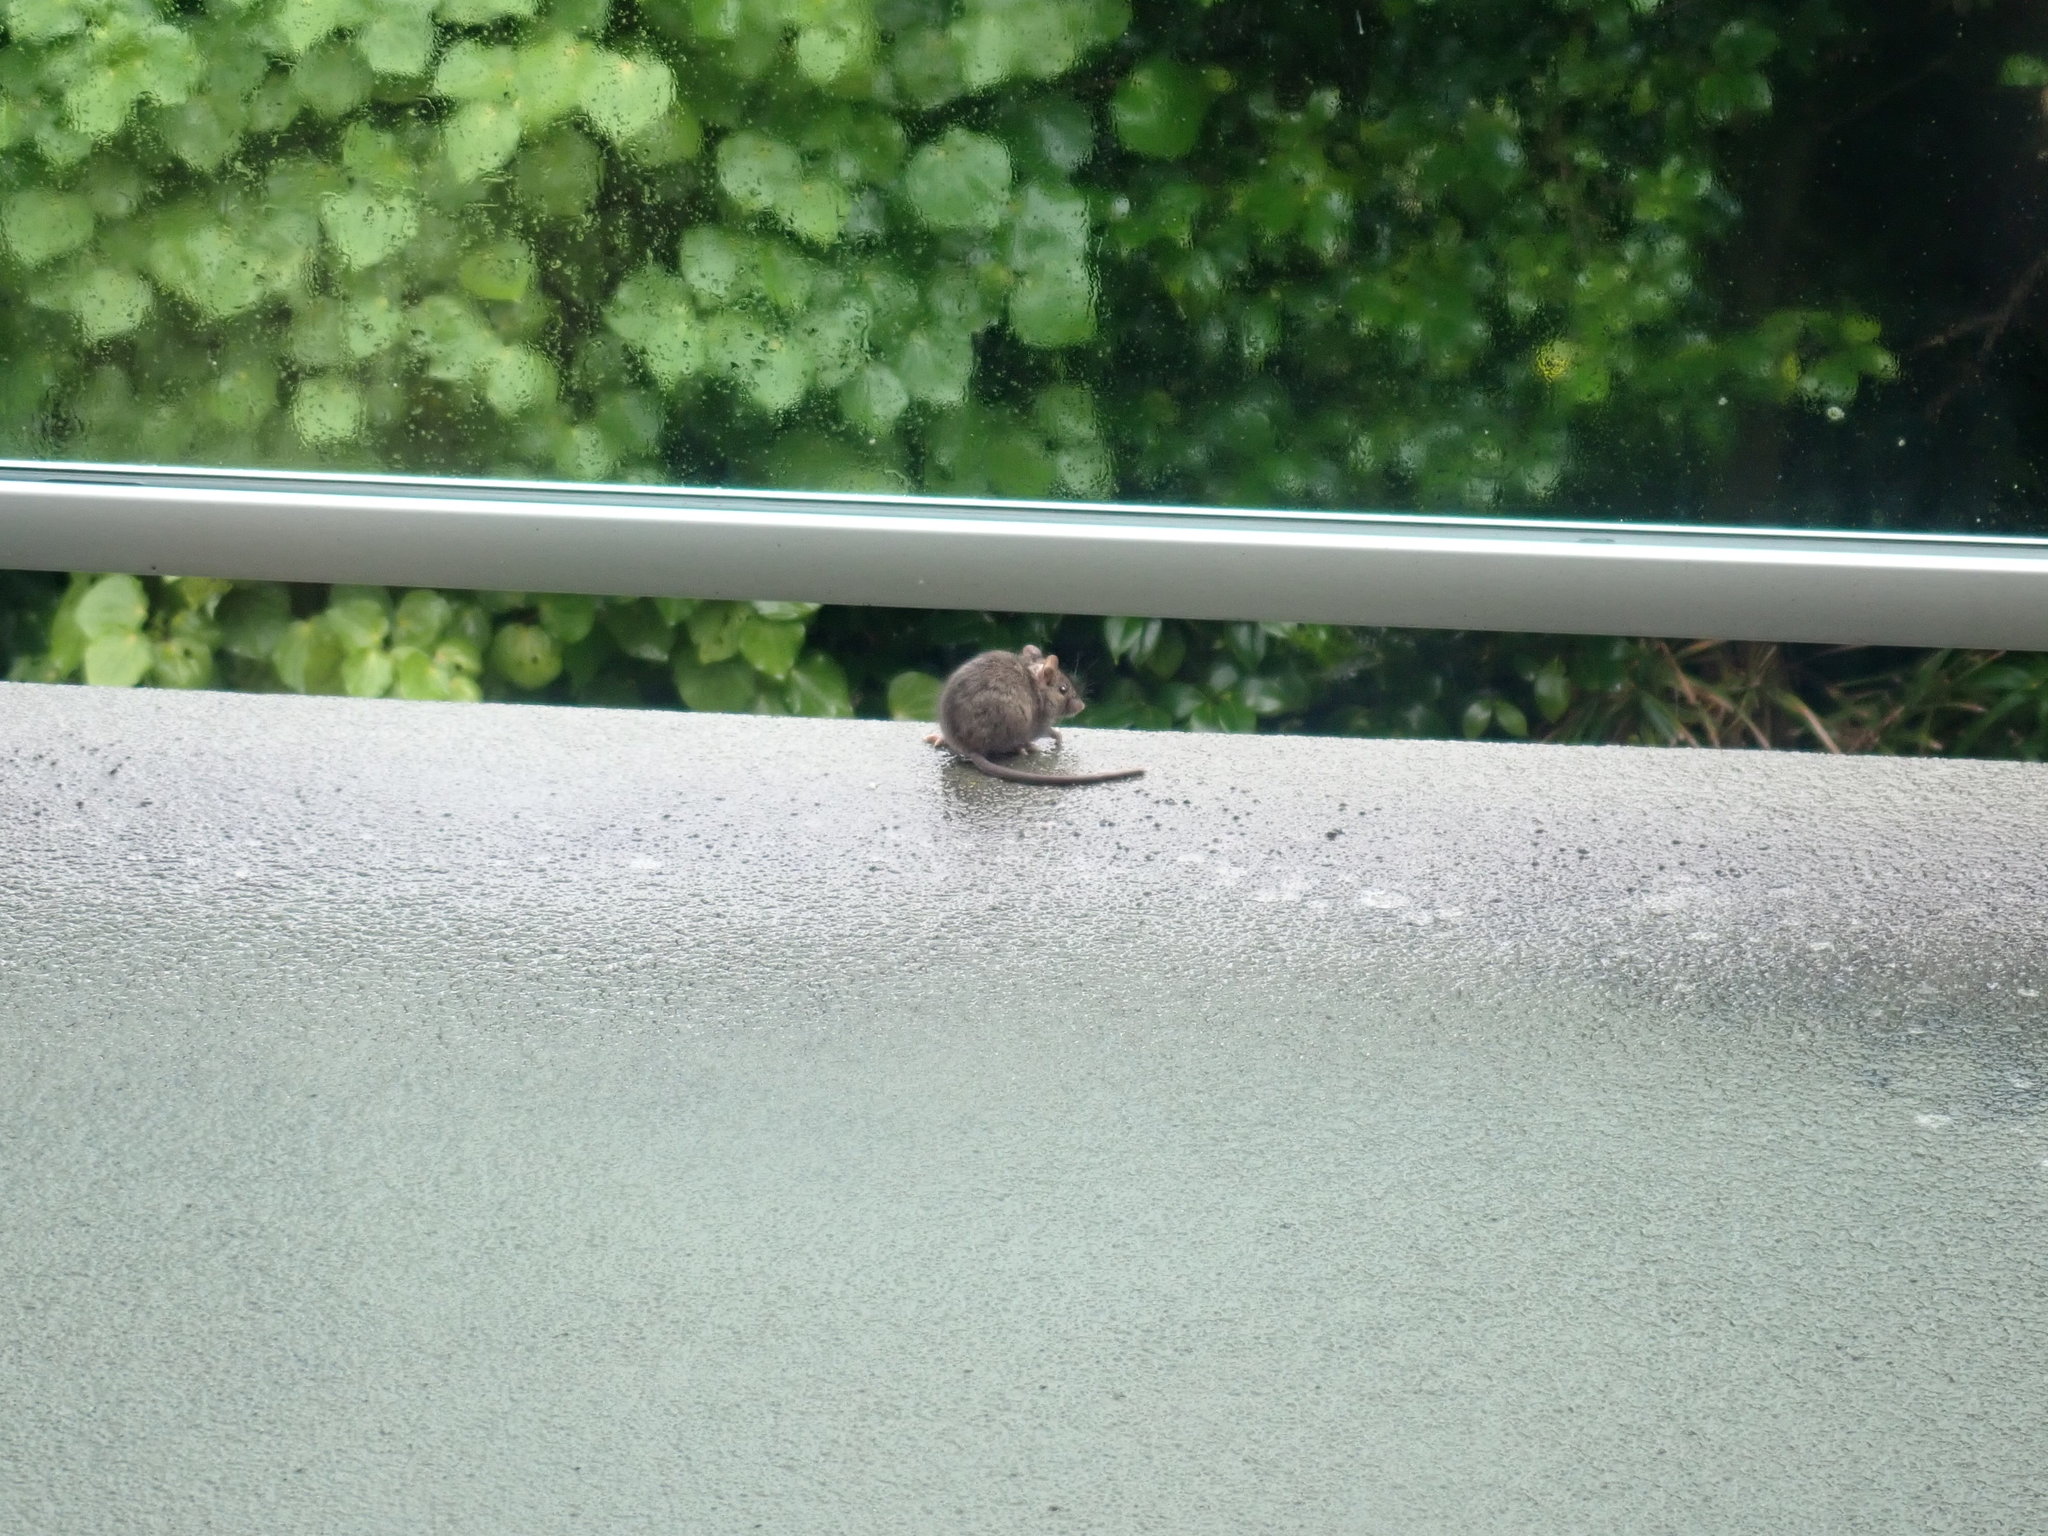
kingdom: Animalia
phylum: Chordata
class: Mammalia
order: Rodentia
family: Muridae
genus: Mus
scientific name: Mus musculus
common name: House mouse
